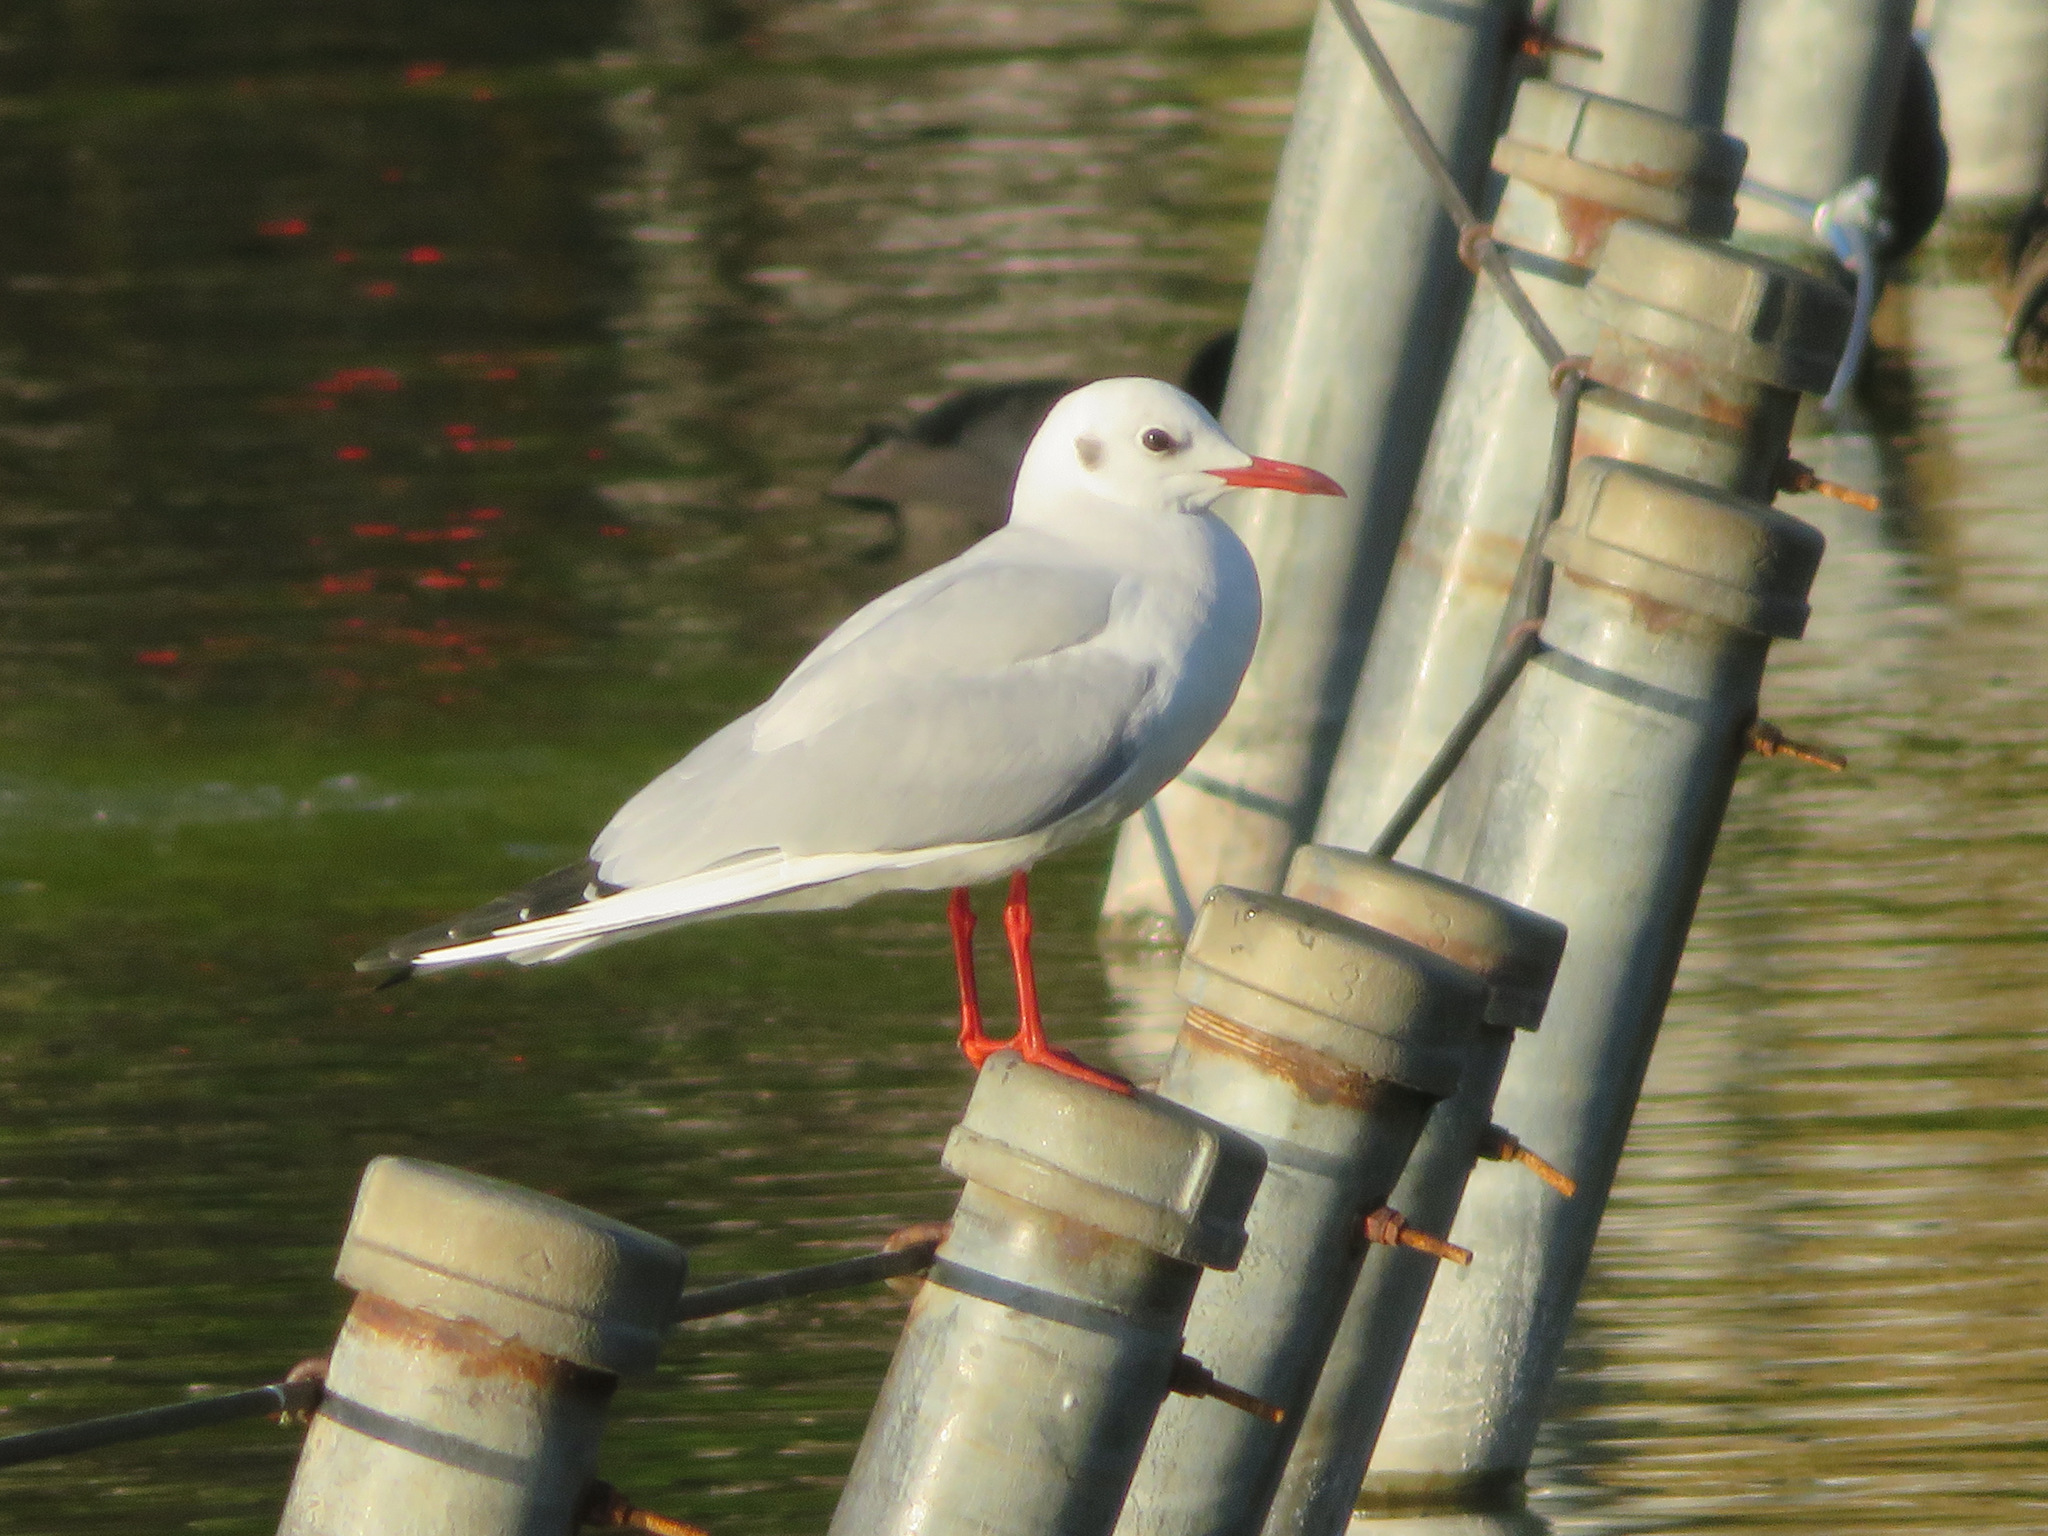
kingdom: Animalia
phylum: Chordata
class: Aves
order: Charadriiformes
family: Laridae
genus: Chroicocephalus
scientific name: Chroicocephalus ridibundus
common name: Black-headed gull
